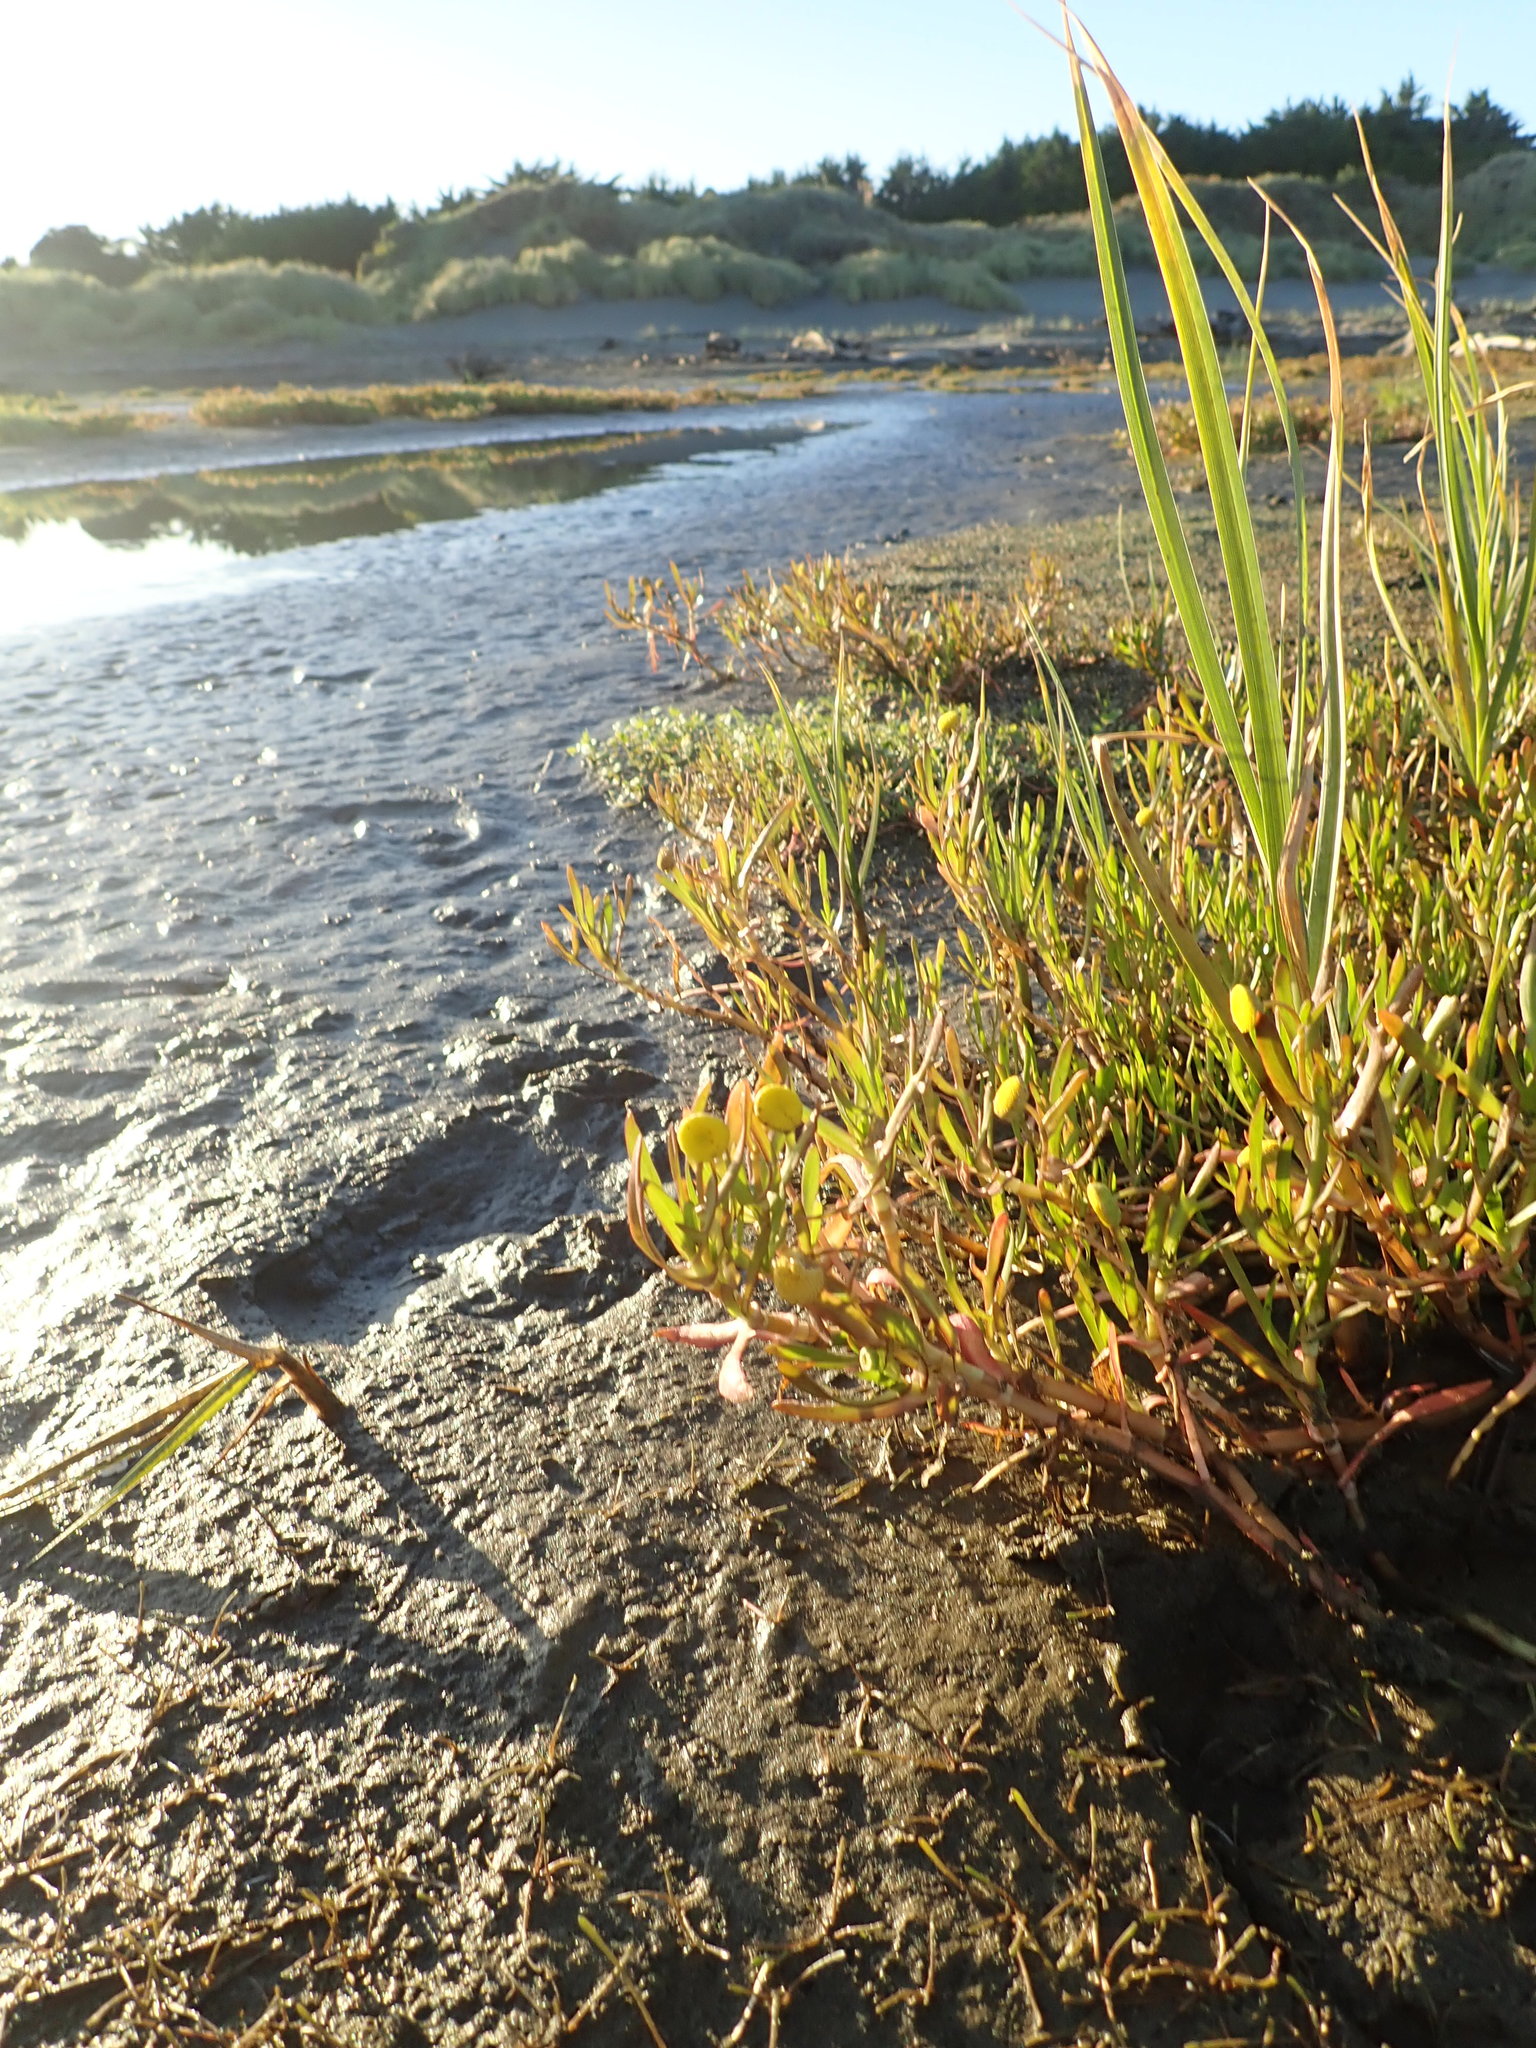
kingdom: Plantae
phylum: Tracheophyta
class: Magnoliopsida
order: Asterales
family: Asteraceae
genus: Cotula
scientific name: Cotula coronopifolia
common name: Buttonweed
